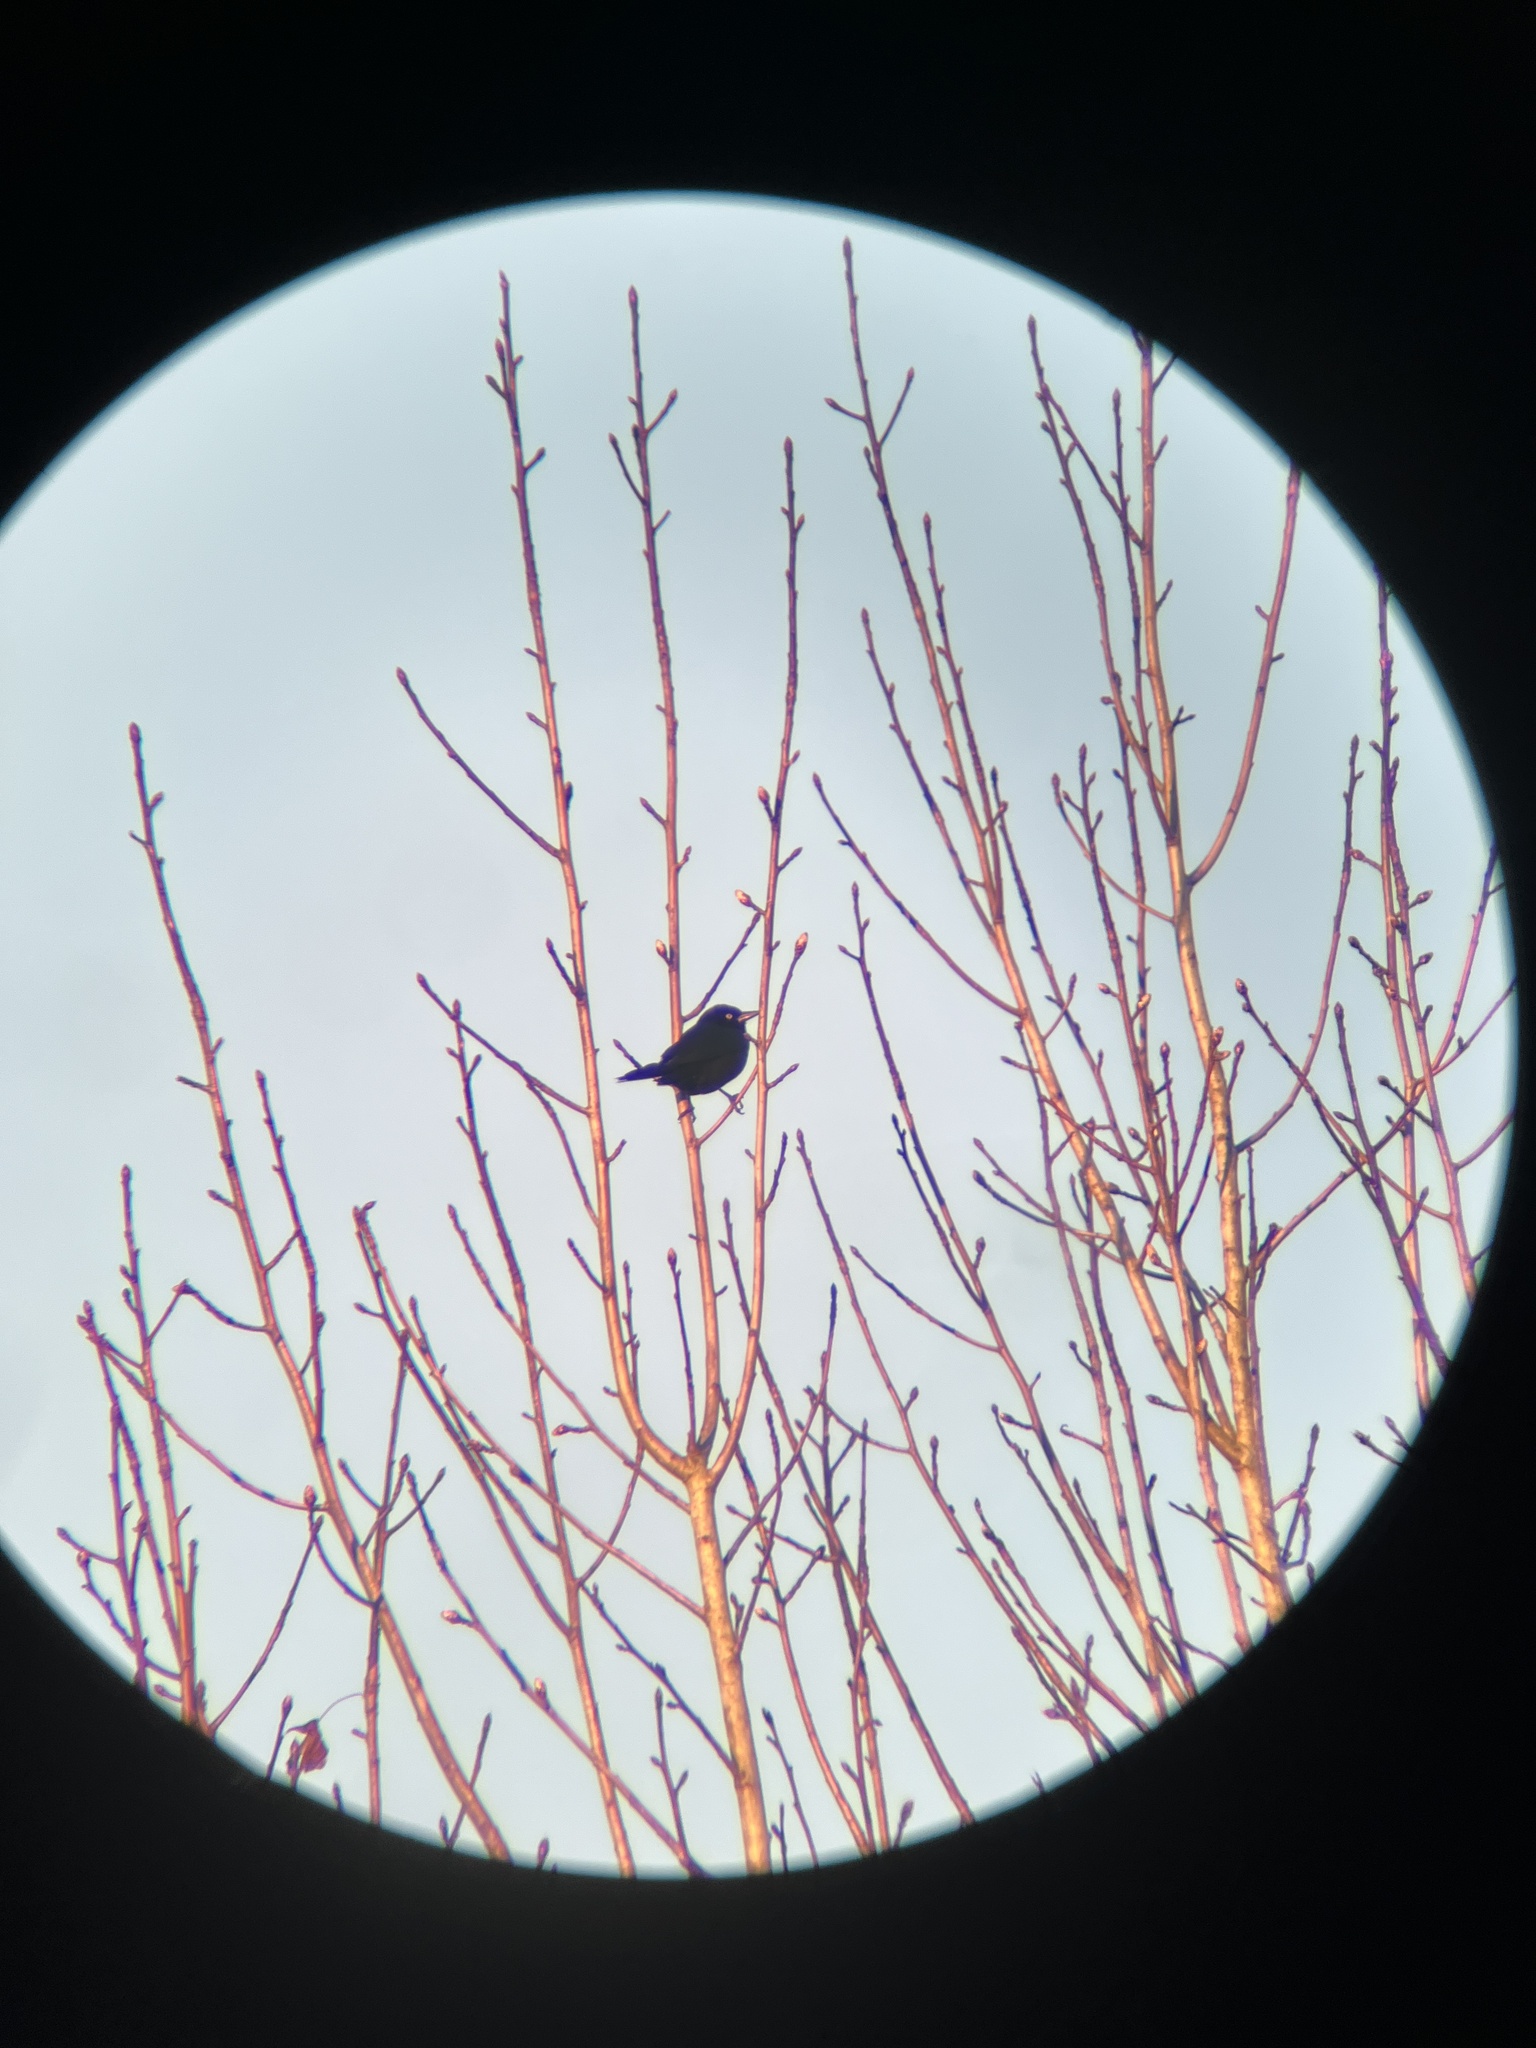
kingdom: Animalia
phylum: Chordata
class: Aves
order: Passeriformes
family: Icteridae
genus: Euphagus
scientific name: Euphagus carolinus
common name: Rusty blackbird
